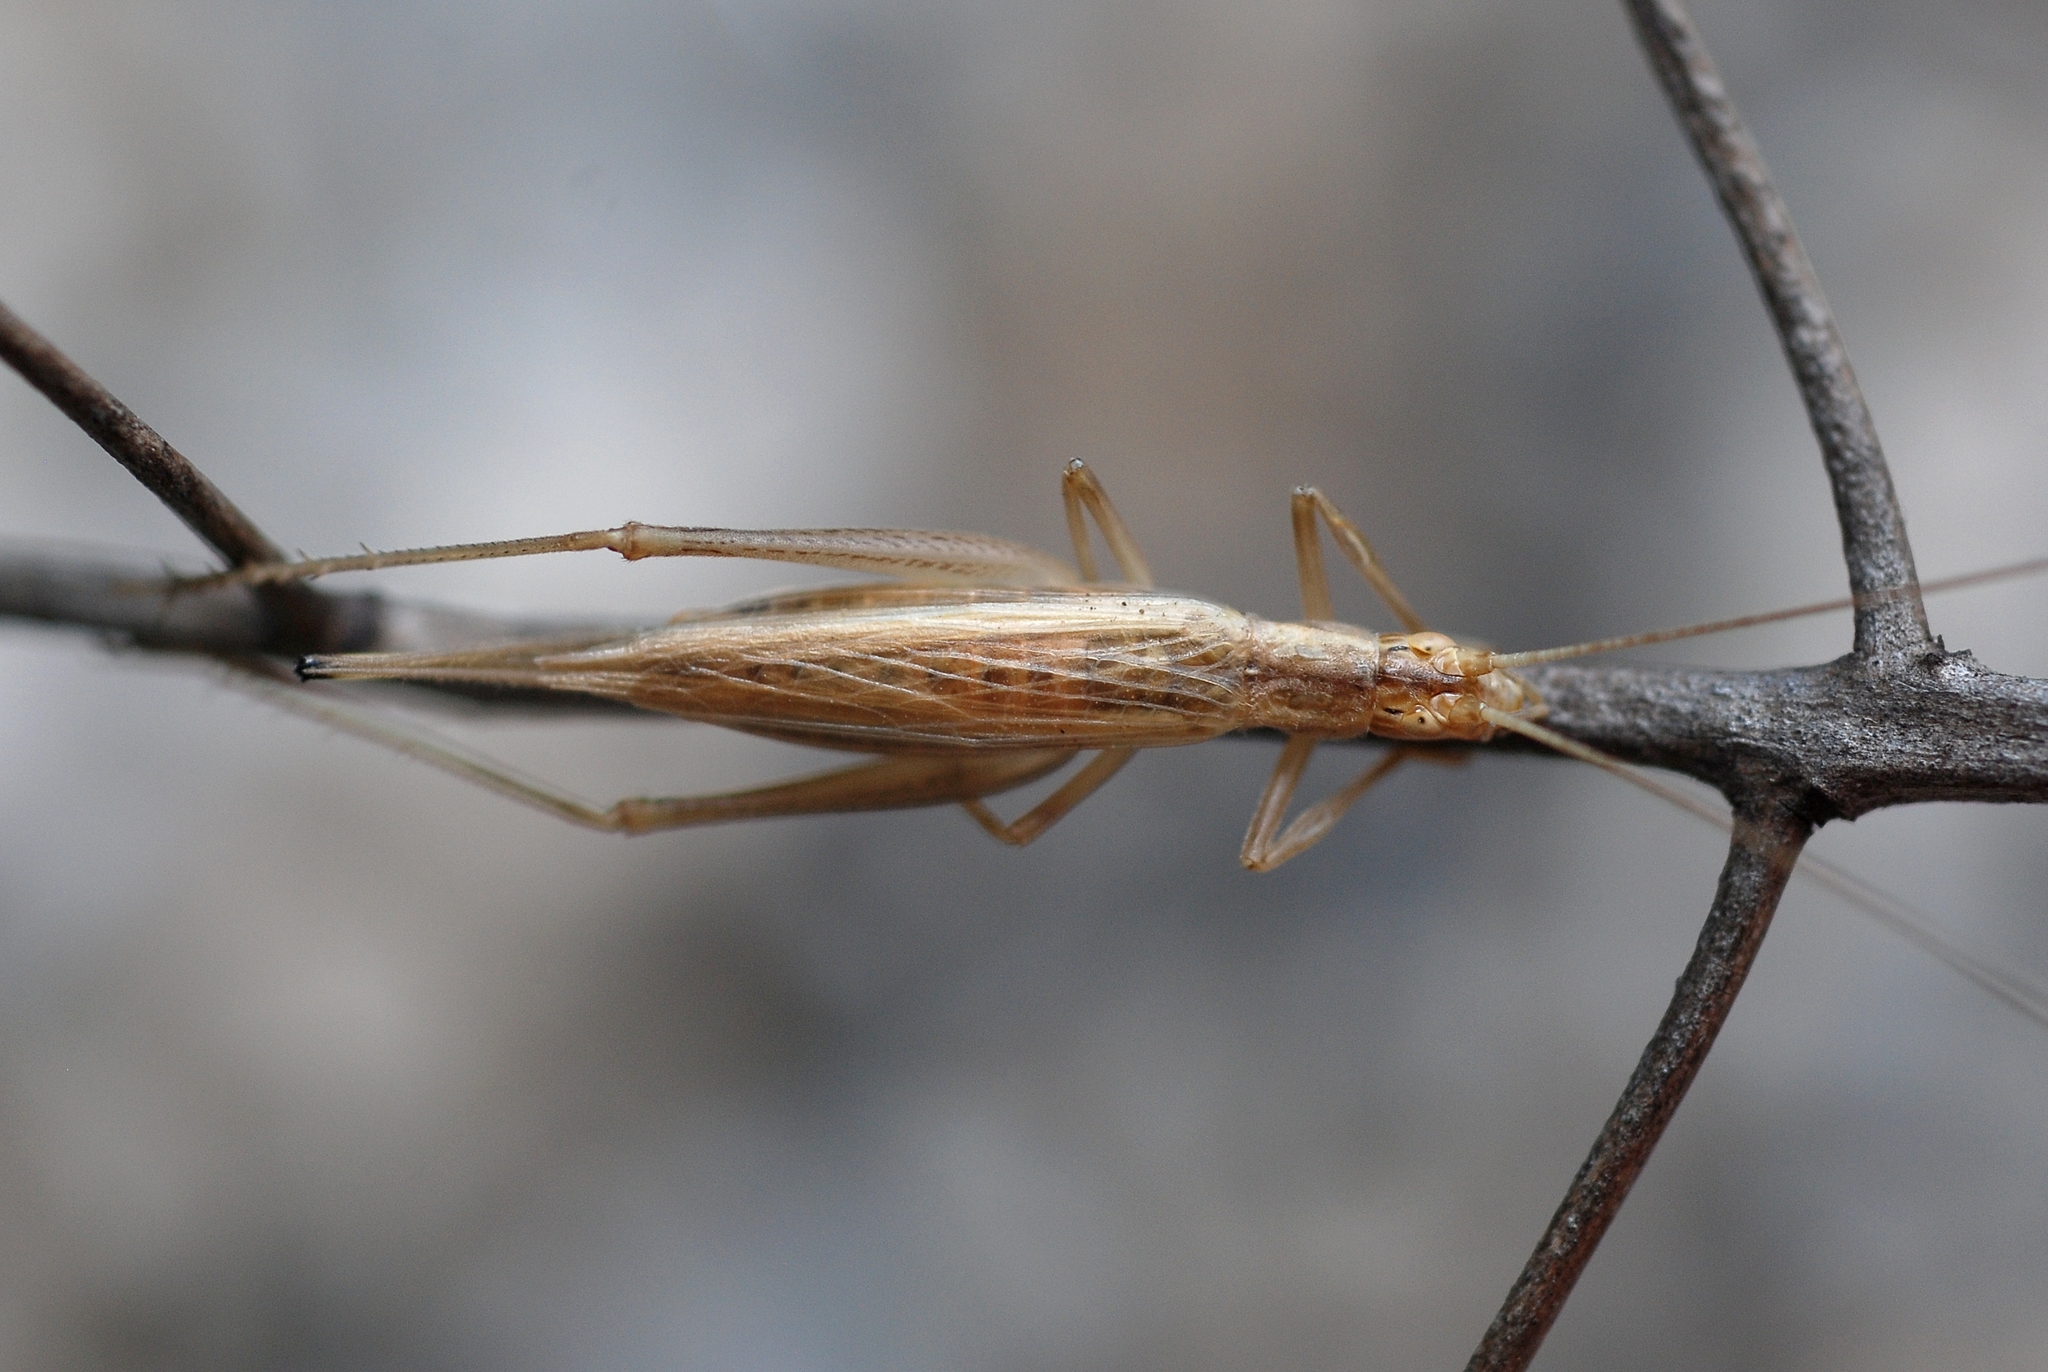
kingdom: Animalia
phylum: Arthropoda
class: Insecta
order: Orthoptera
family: Gryllidae
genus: Oecanthus
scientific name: Oecanthus pellucens
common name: Tree-cricket
